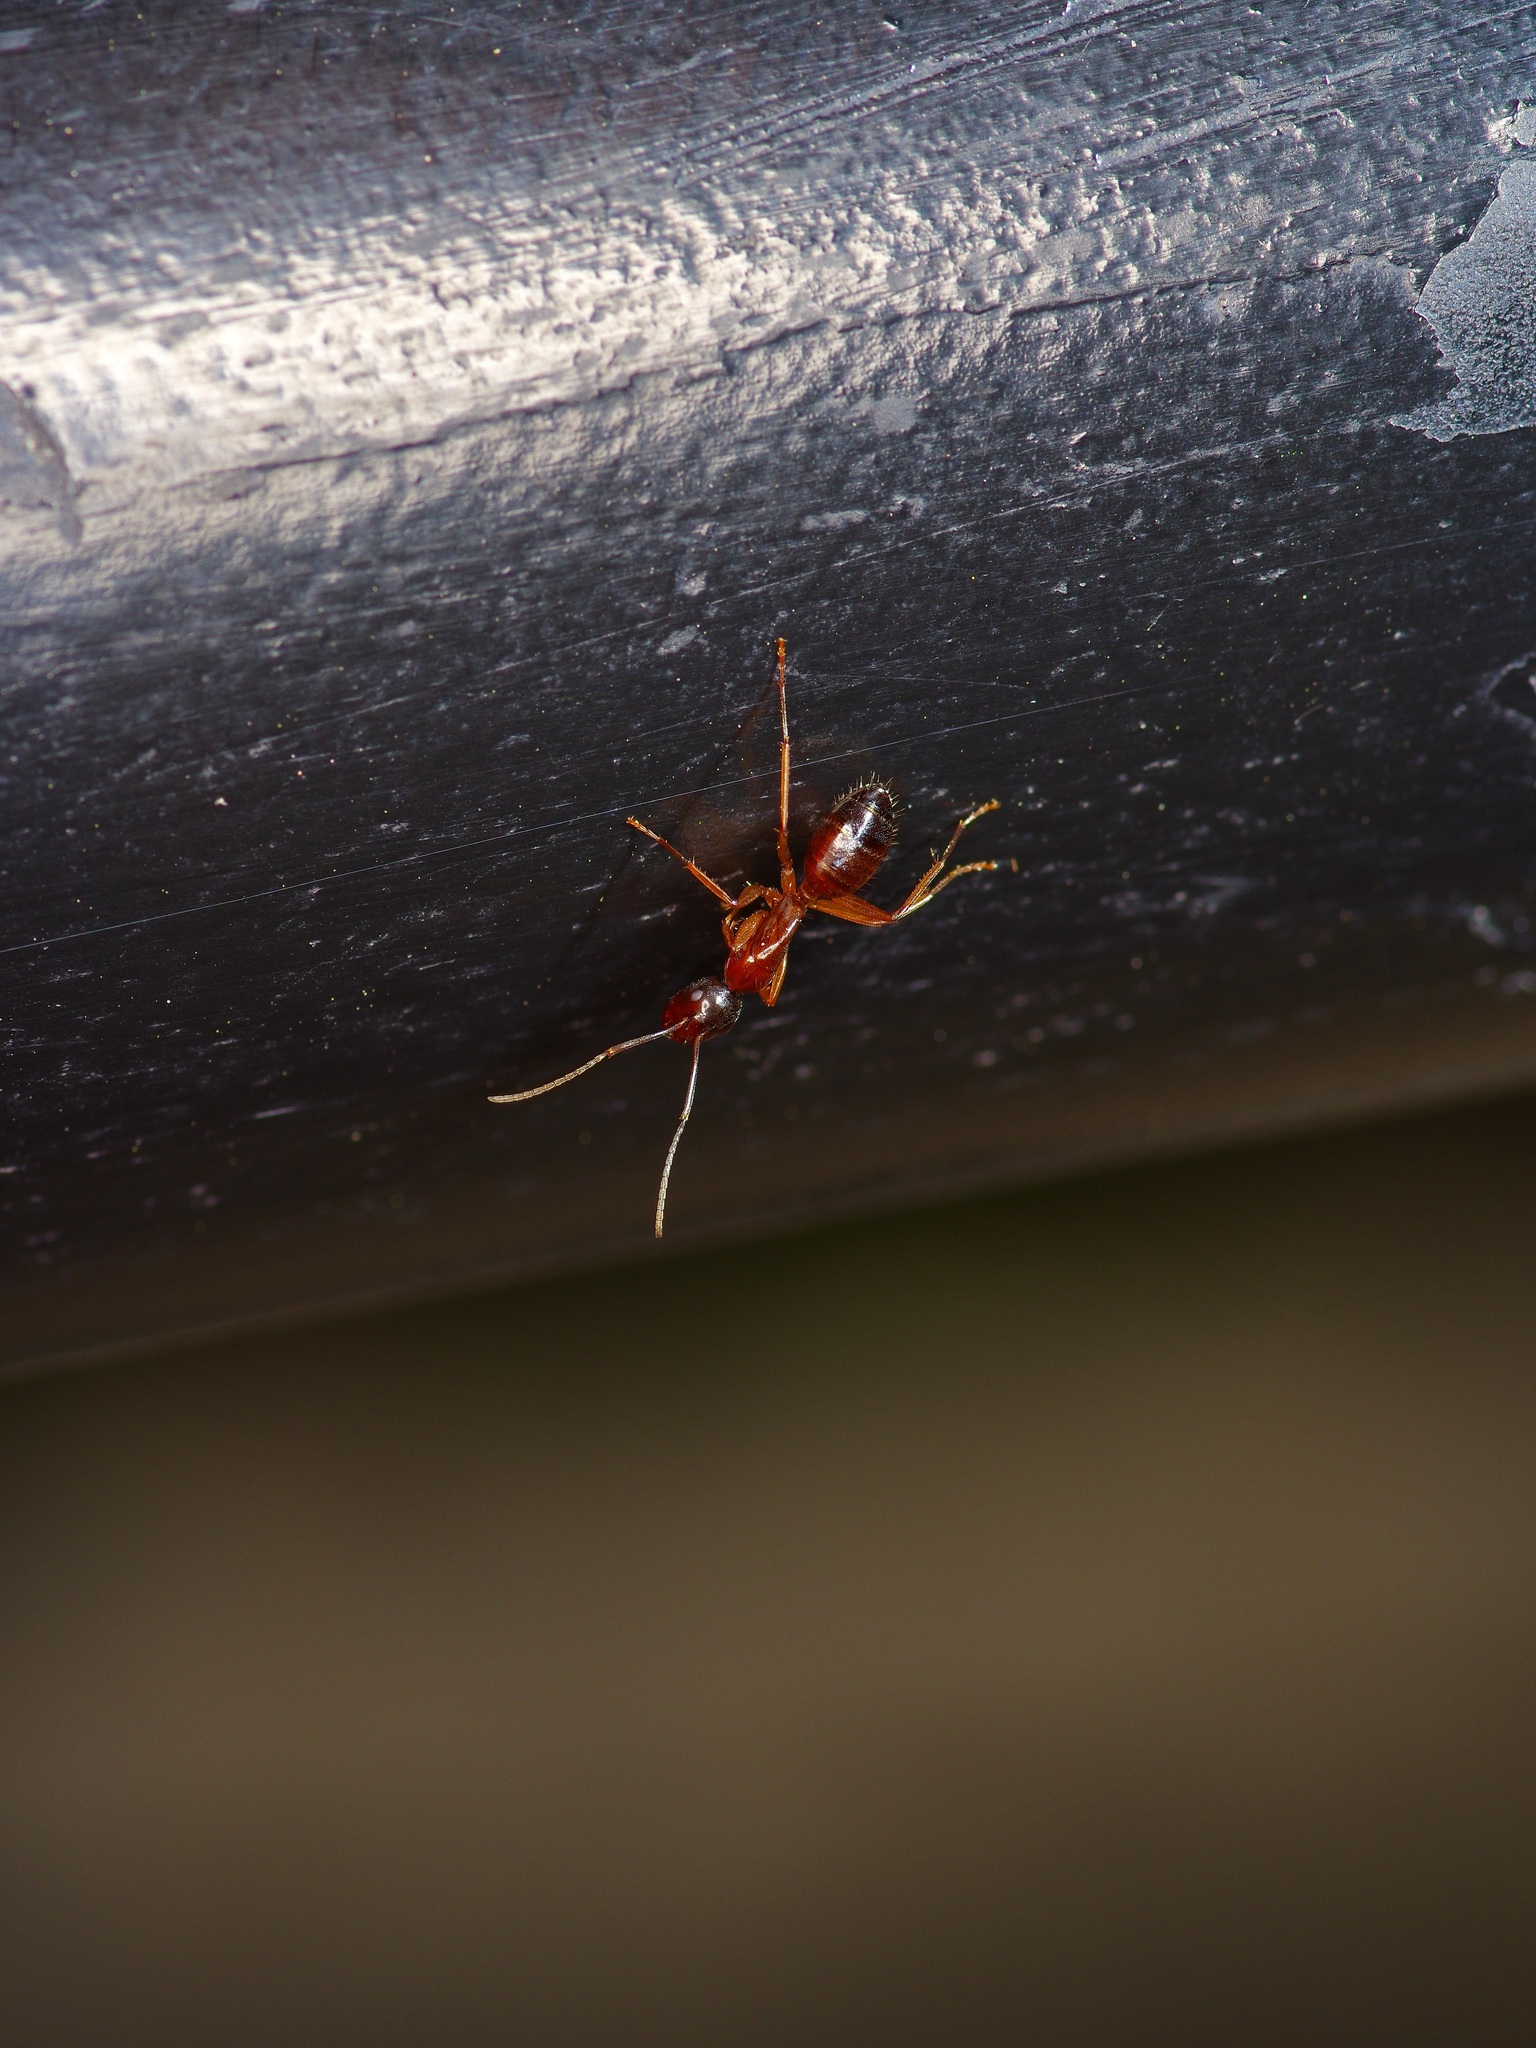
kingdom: Animalia
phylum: Arthropoda
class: Insecta
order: Hymenoptera
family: Formicidae
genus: Camponotus
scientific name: Camponotus sansabeanus
